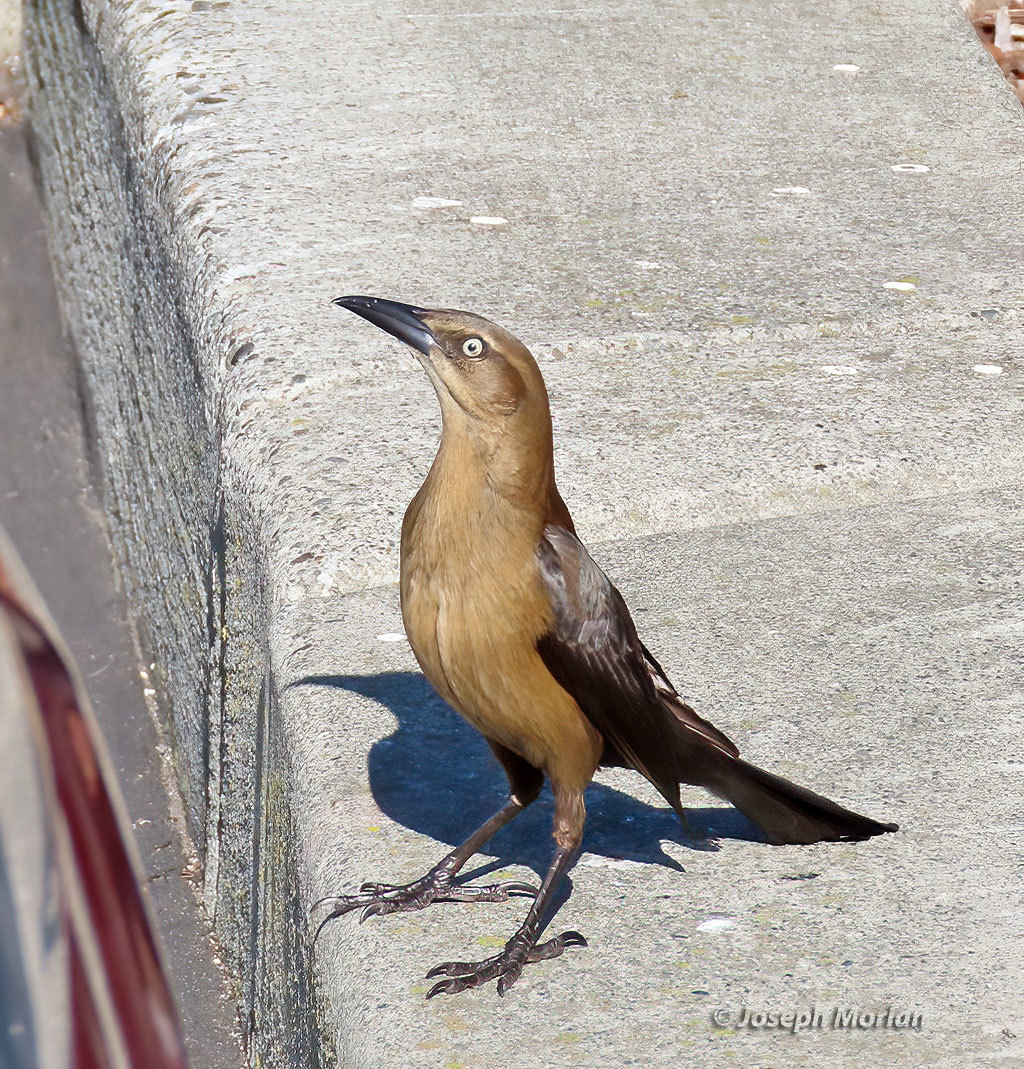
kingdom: Animalia
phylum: Chordata
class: Aves
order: Passeriformes
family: Icteridae
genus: Quiscalus
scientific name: Quiscalus mexicanus
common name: Great-tailed grackle
